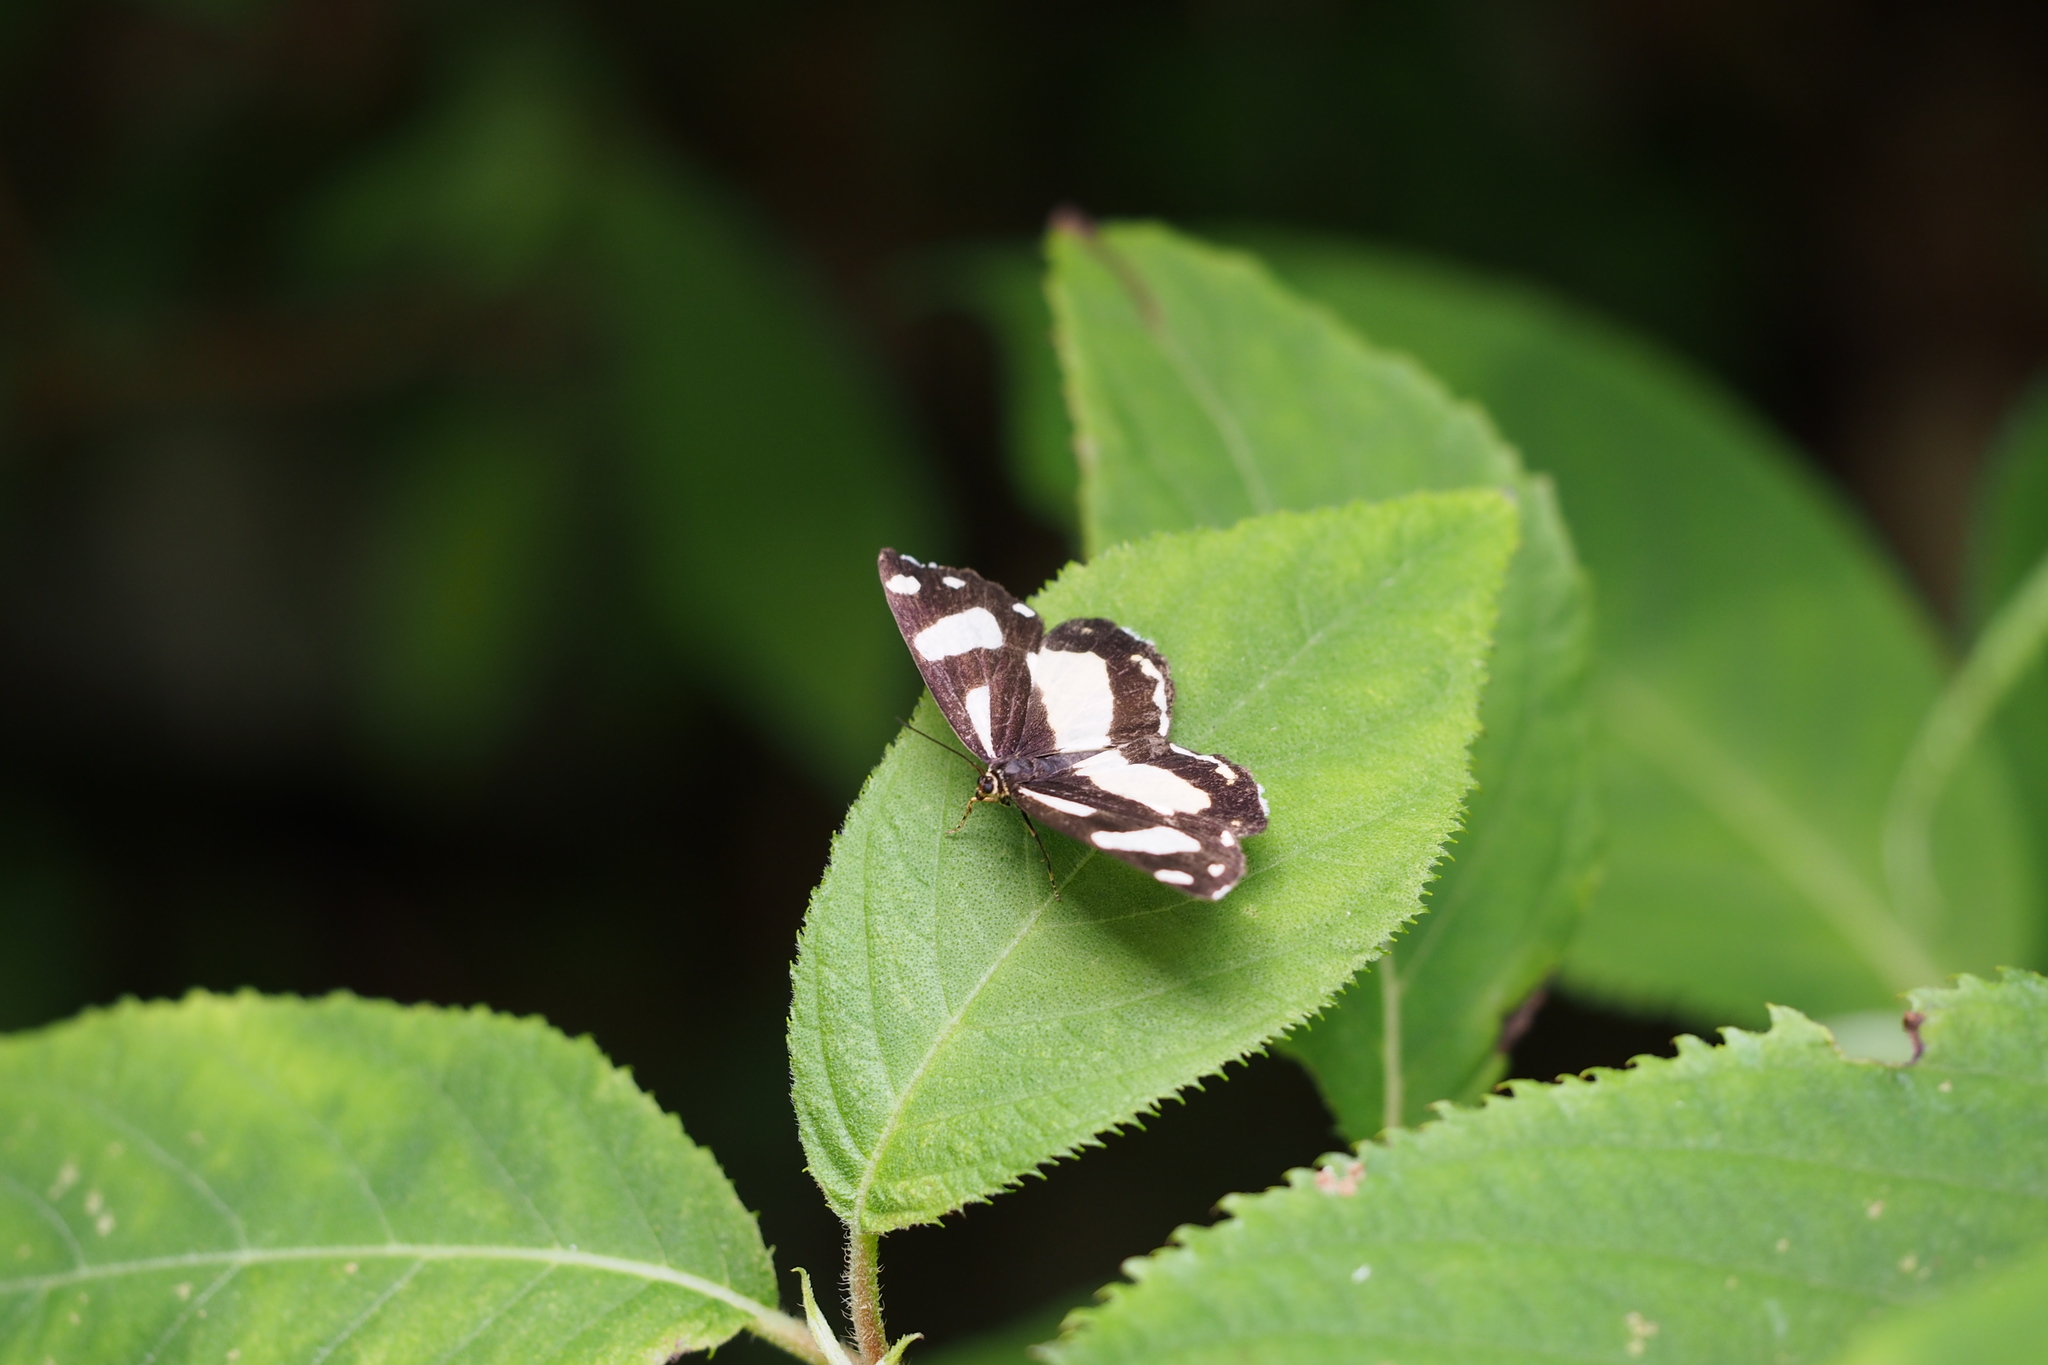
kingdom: Animalia
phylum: Arthropoda
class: Insecta
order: Lepidoptera
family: Epicopeiidae
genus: Psychostrophia
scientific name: Psychostrophia melanargia
